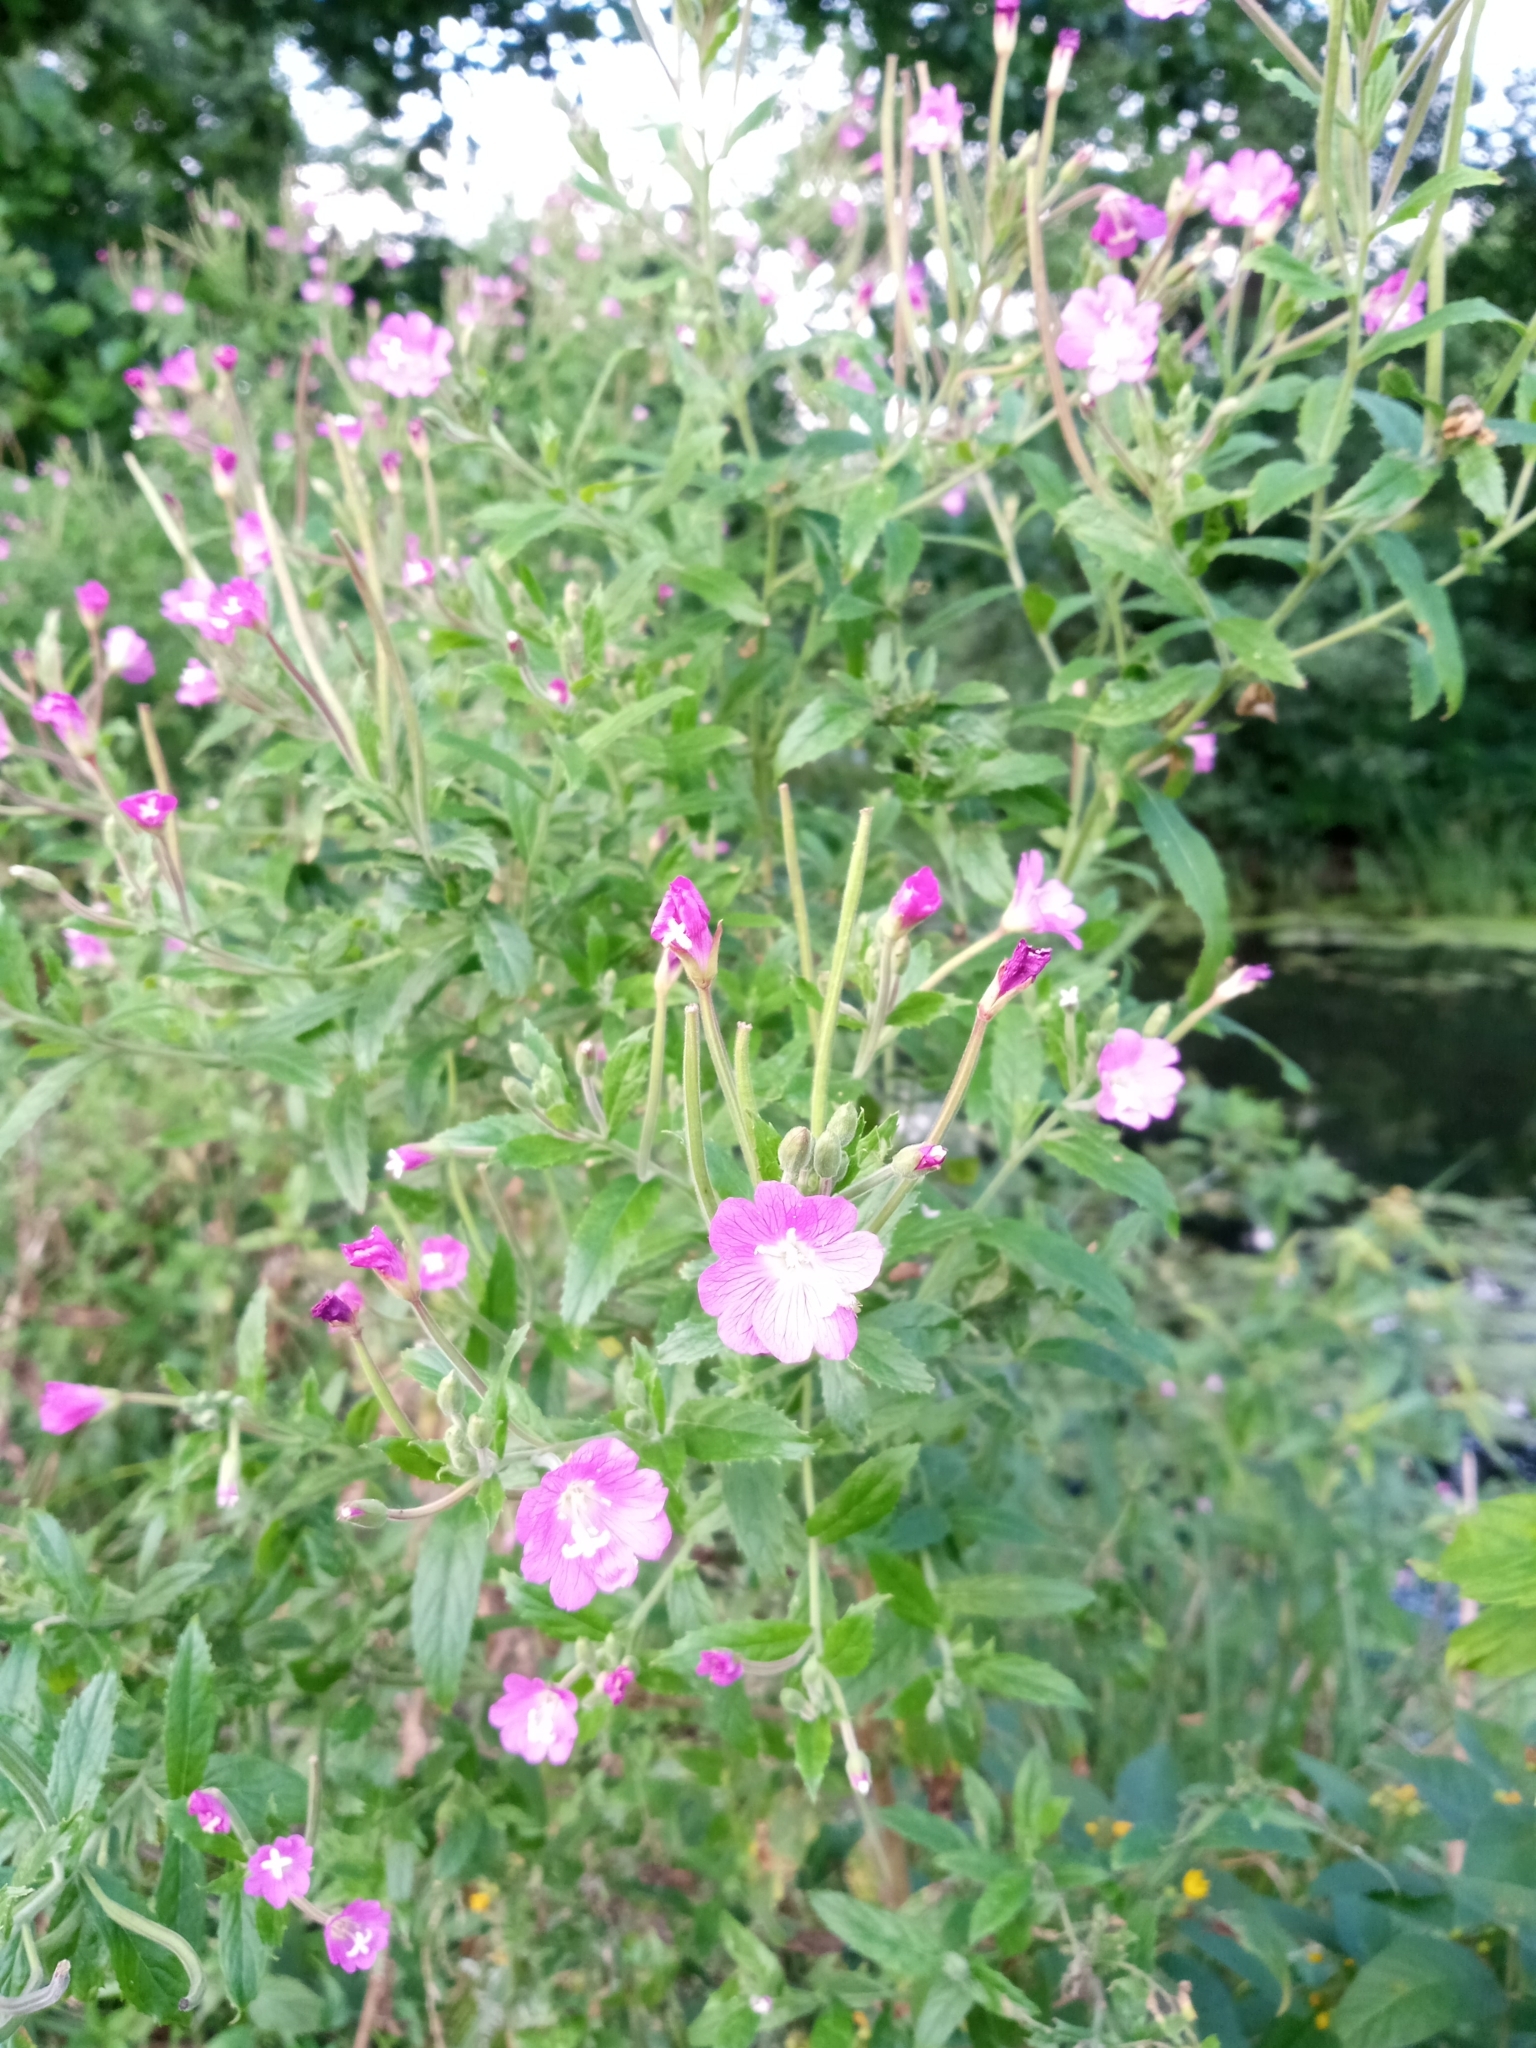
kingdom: Plantae
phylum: Tracheophyta
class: Magnoliopsida
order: Myrtales
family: Onagraceae
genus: Epilobium
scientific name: Epilobium hirsutum
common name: Great willowherb
